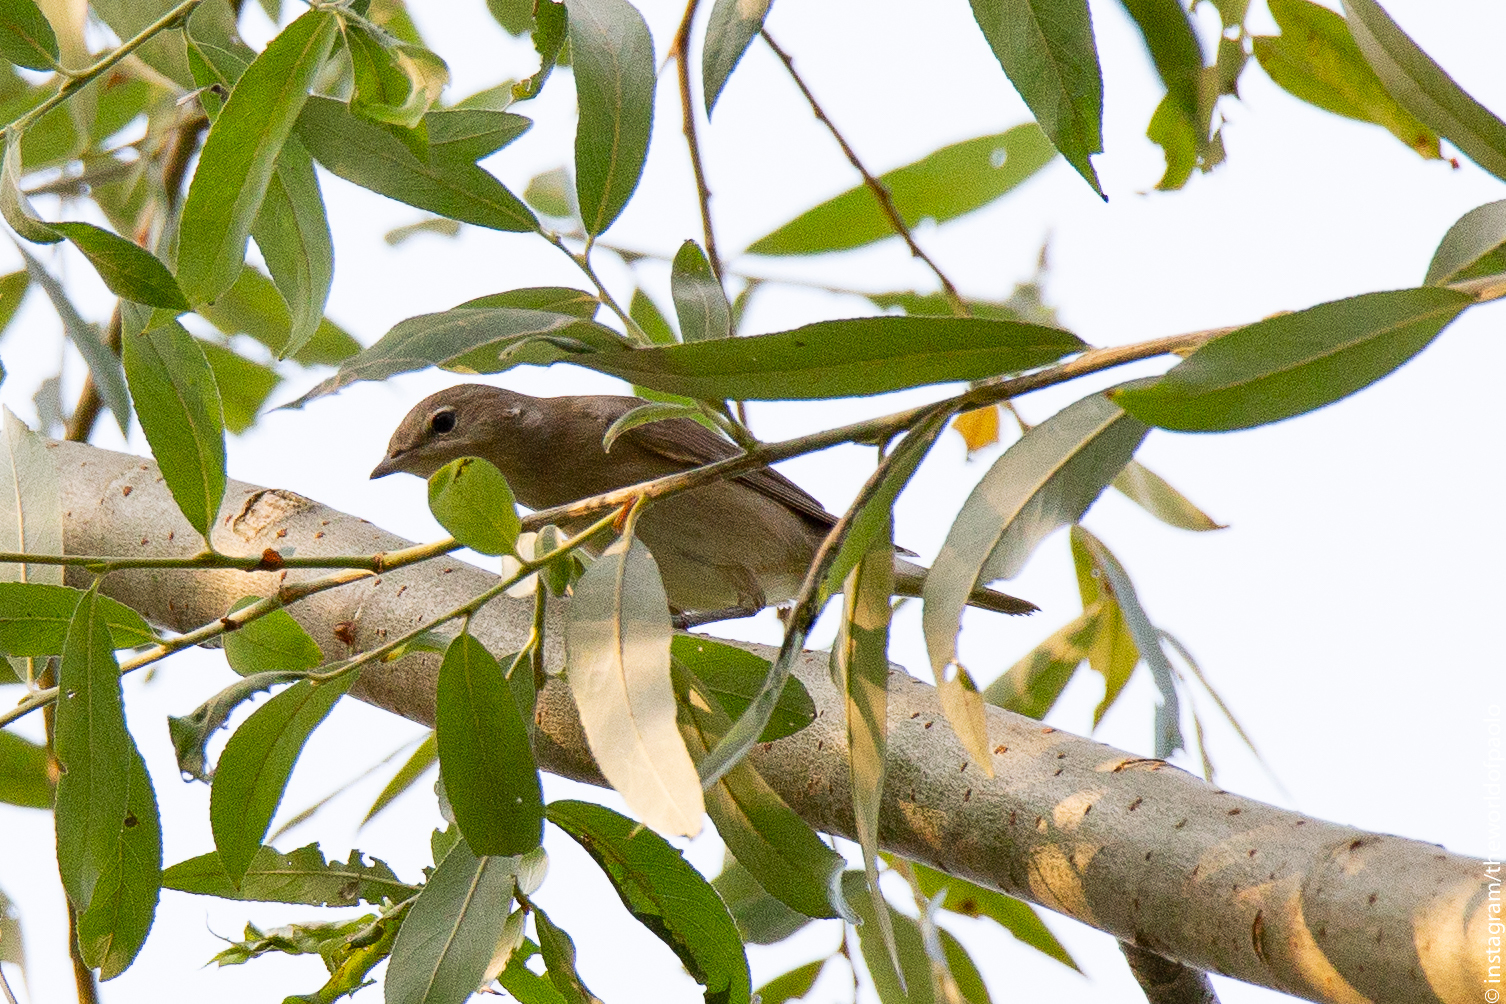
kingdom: Animalia
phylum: Chordata
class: Aves
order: Passeriformes
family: Sylviidae
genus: Sylvia
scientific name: Sylvia borin
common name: Garden warbler
